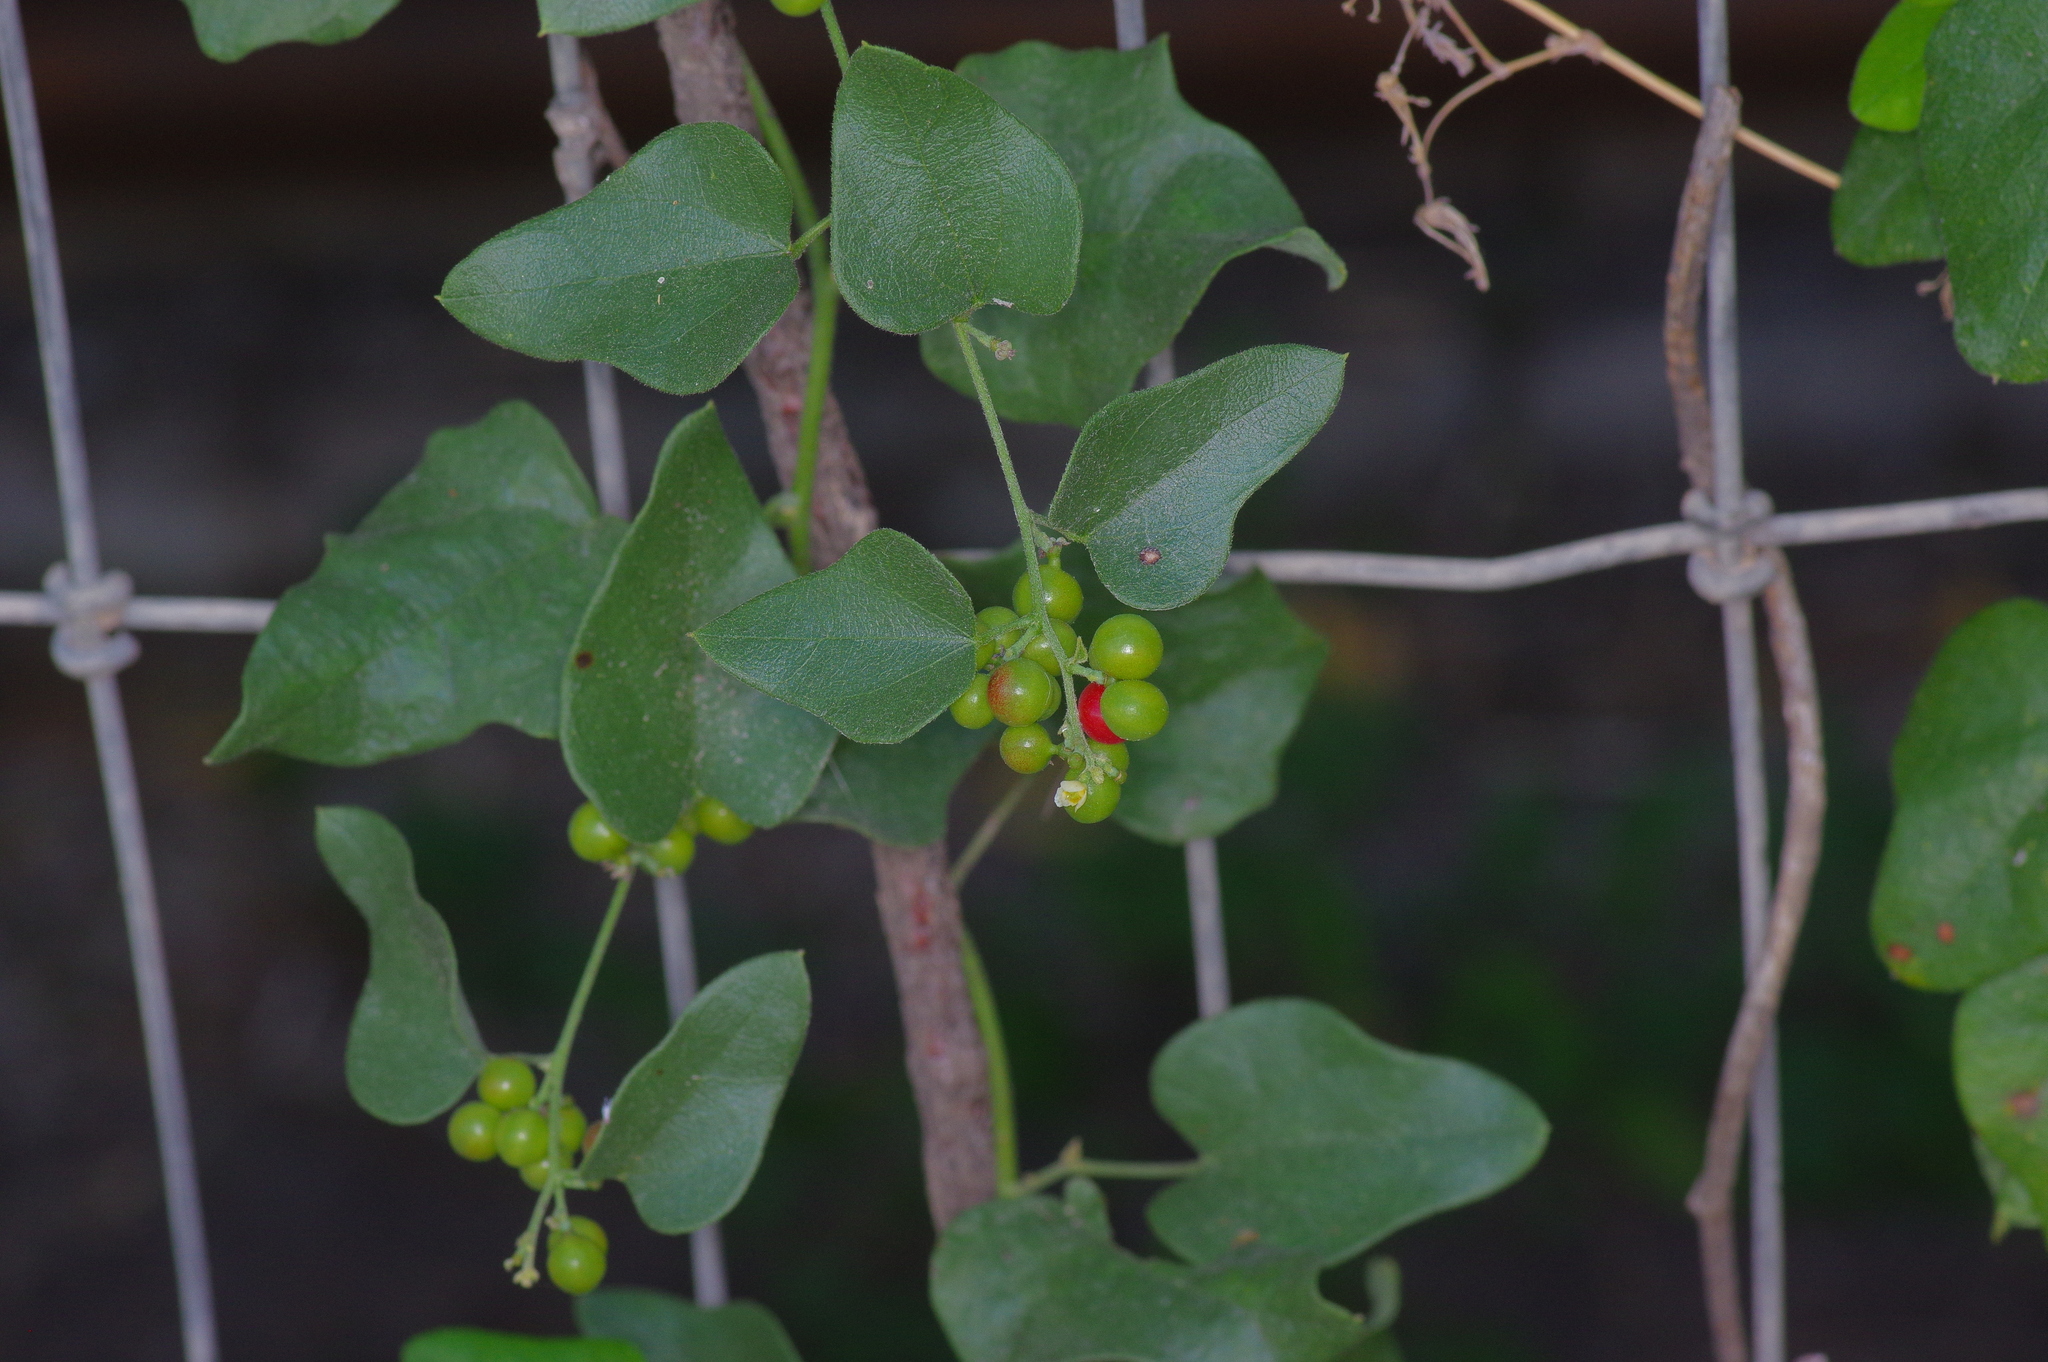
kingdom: Plantae
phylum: Tracheophyta
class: Magnoliopsida
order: Ranunculales
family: Menispermaceae
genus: Cocculus
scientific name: Cocculus carolinus
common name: Carolina moonseed
